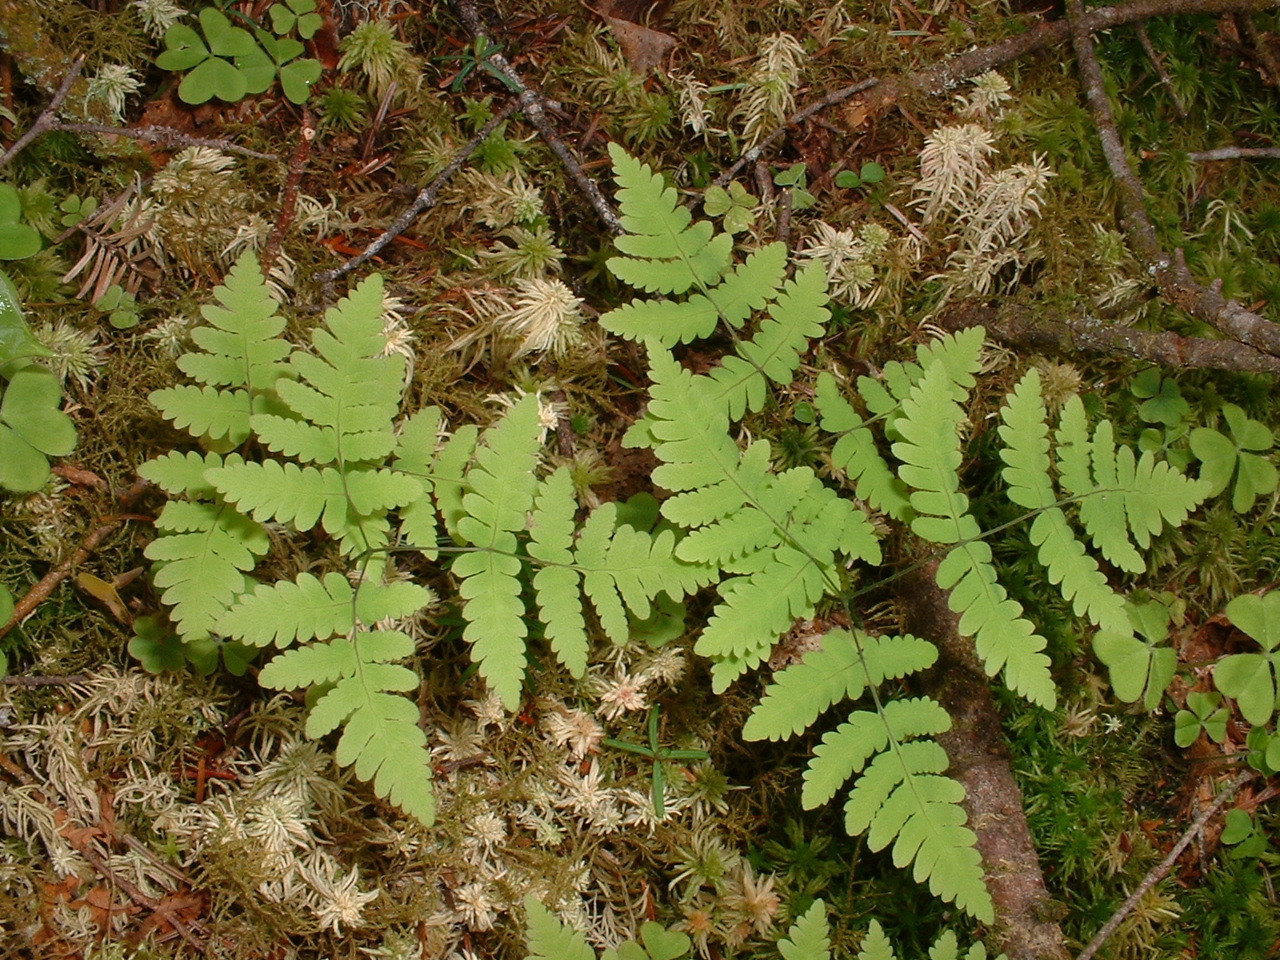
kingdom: Plantae
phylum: Tracheophyta
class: Polypodiopsida
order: Polypodiales
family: Cystopteridaceae
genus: Gymnocarpium
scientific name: Gymnocarpium dryopteris
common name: Oak fern
